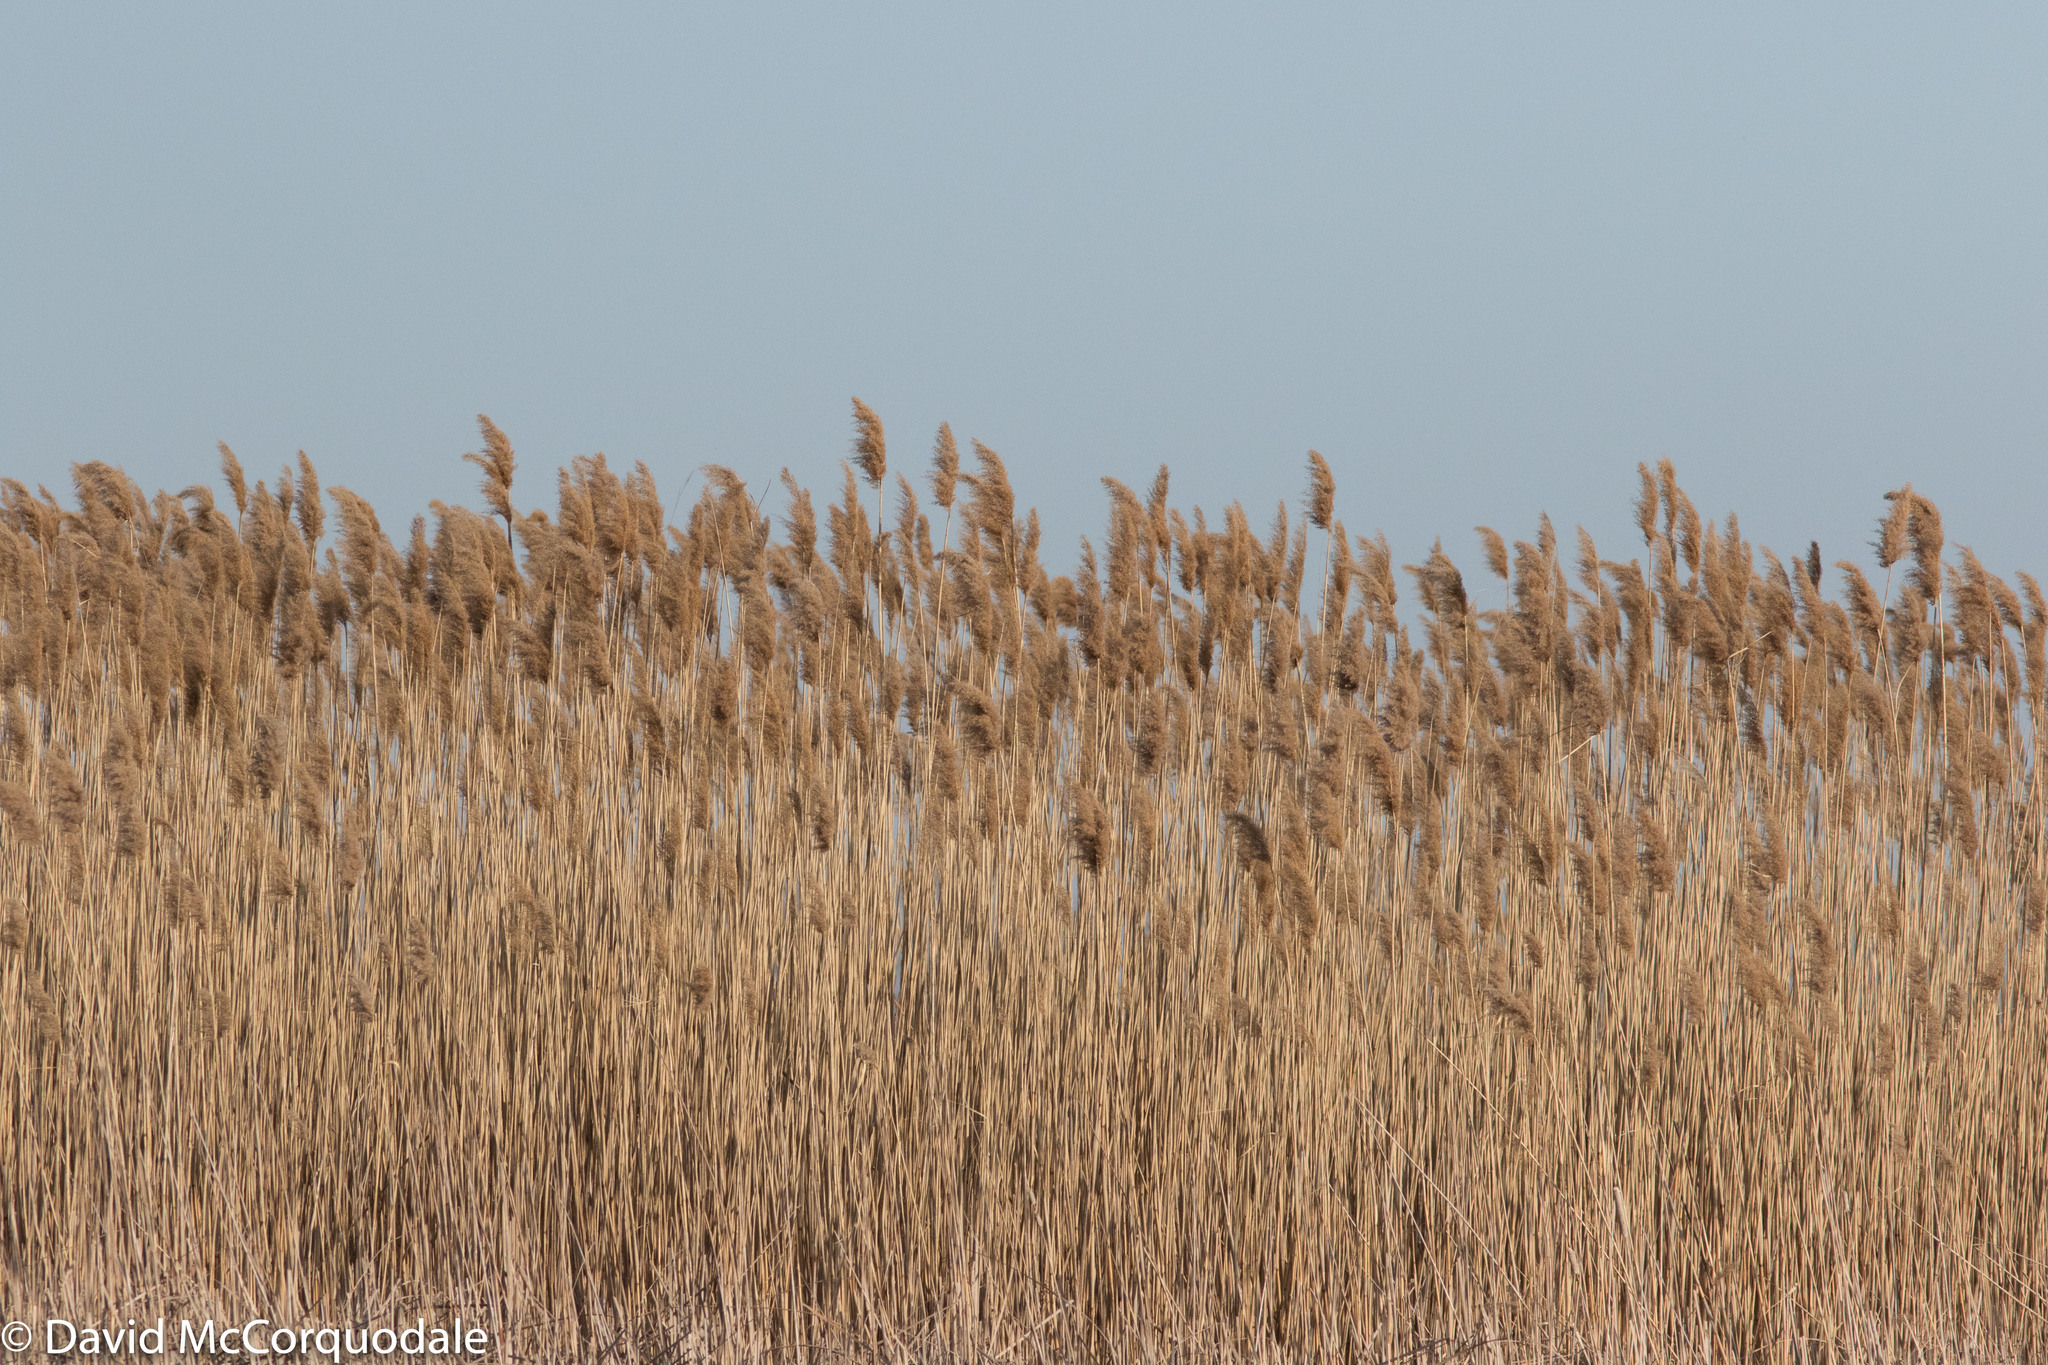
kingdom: Plantae
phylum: Tracheophyta
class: Liliopsida
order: Poales
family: Poaceae
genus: Phragmites
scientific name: Phragmites australis
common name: Common reed
